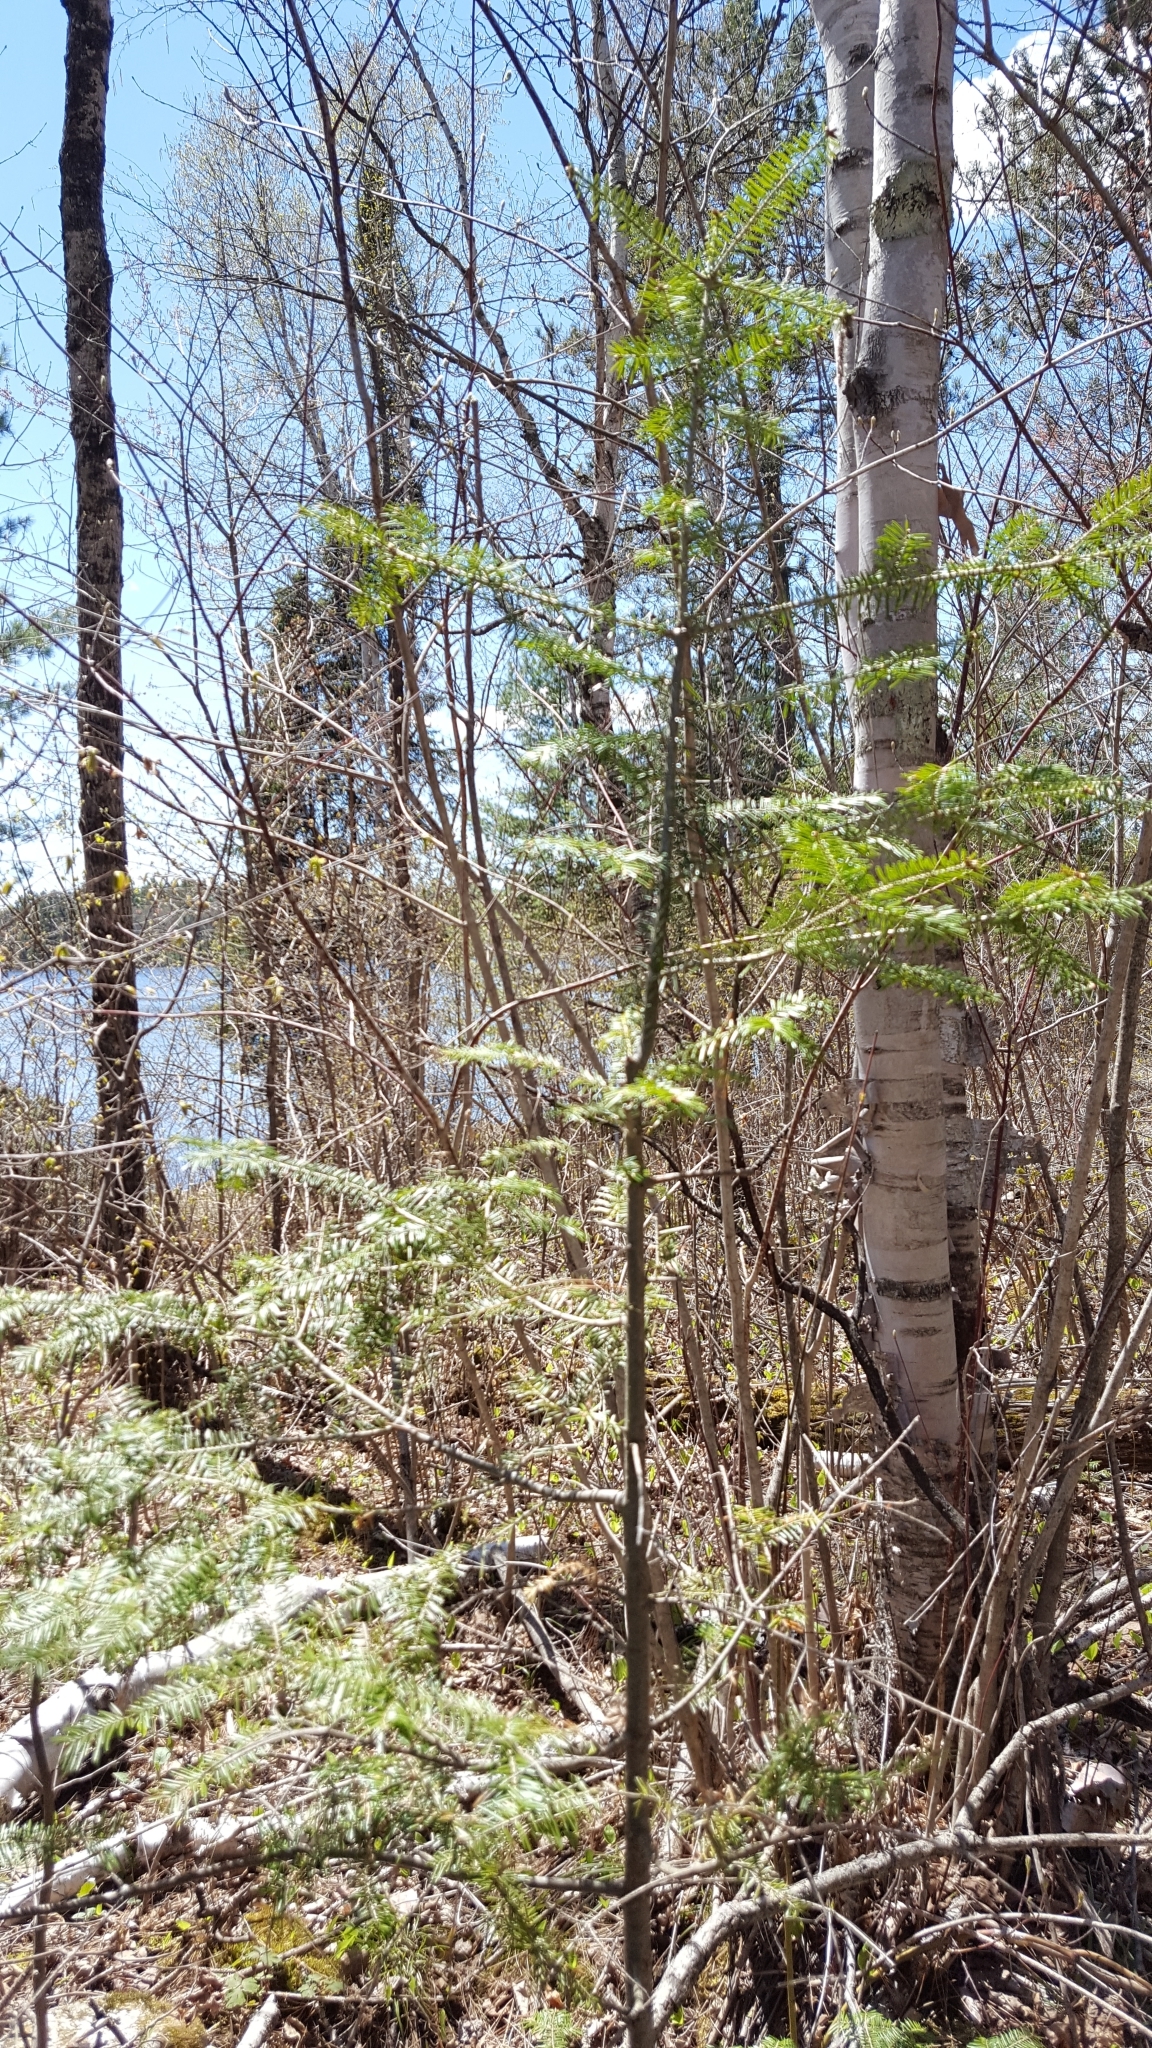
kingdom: Plantae
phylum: Tracheophyta
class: Pinopsida
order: Pinales
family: Pinaceae
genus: Abies
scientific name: Abies balsamea
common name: Balsam fir
